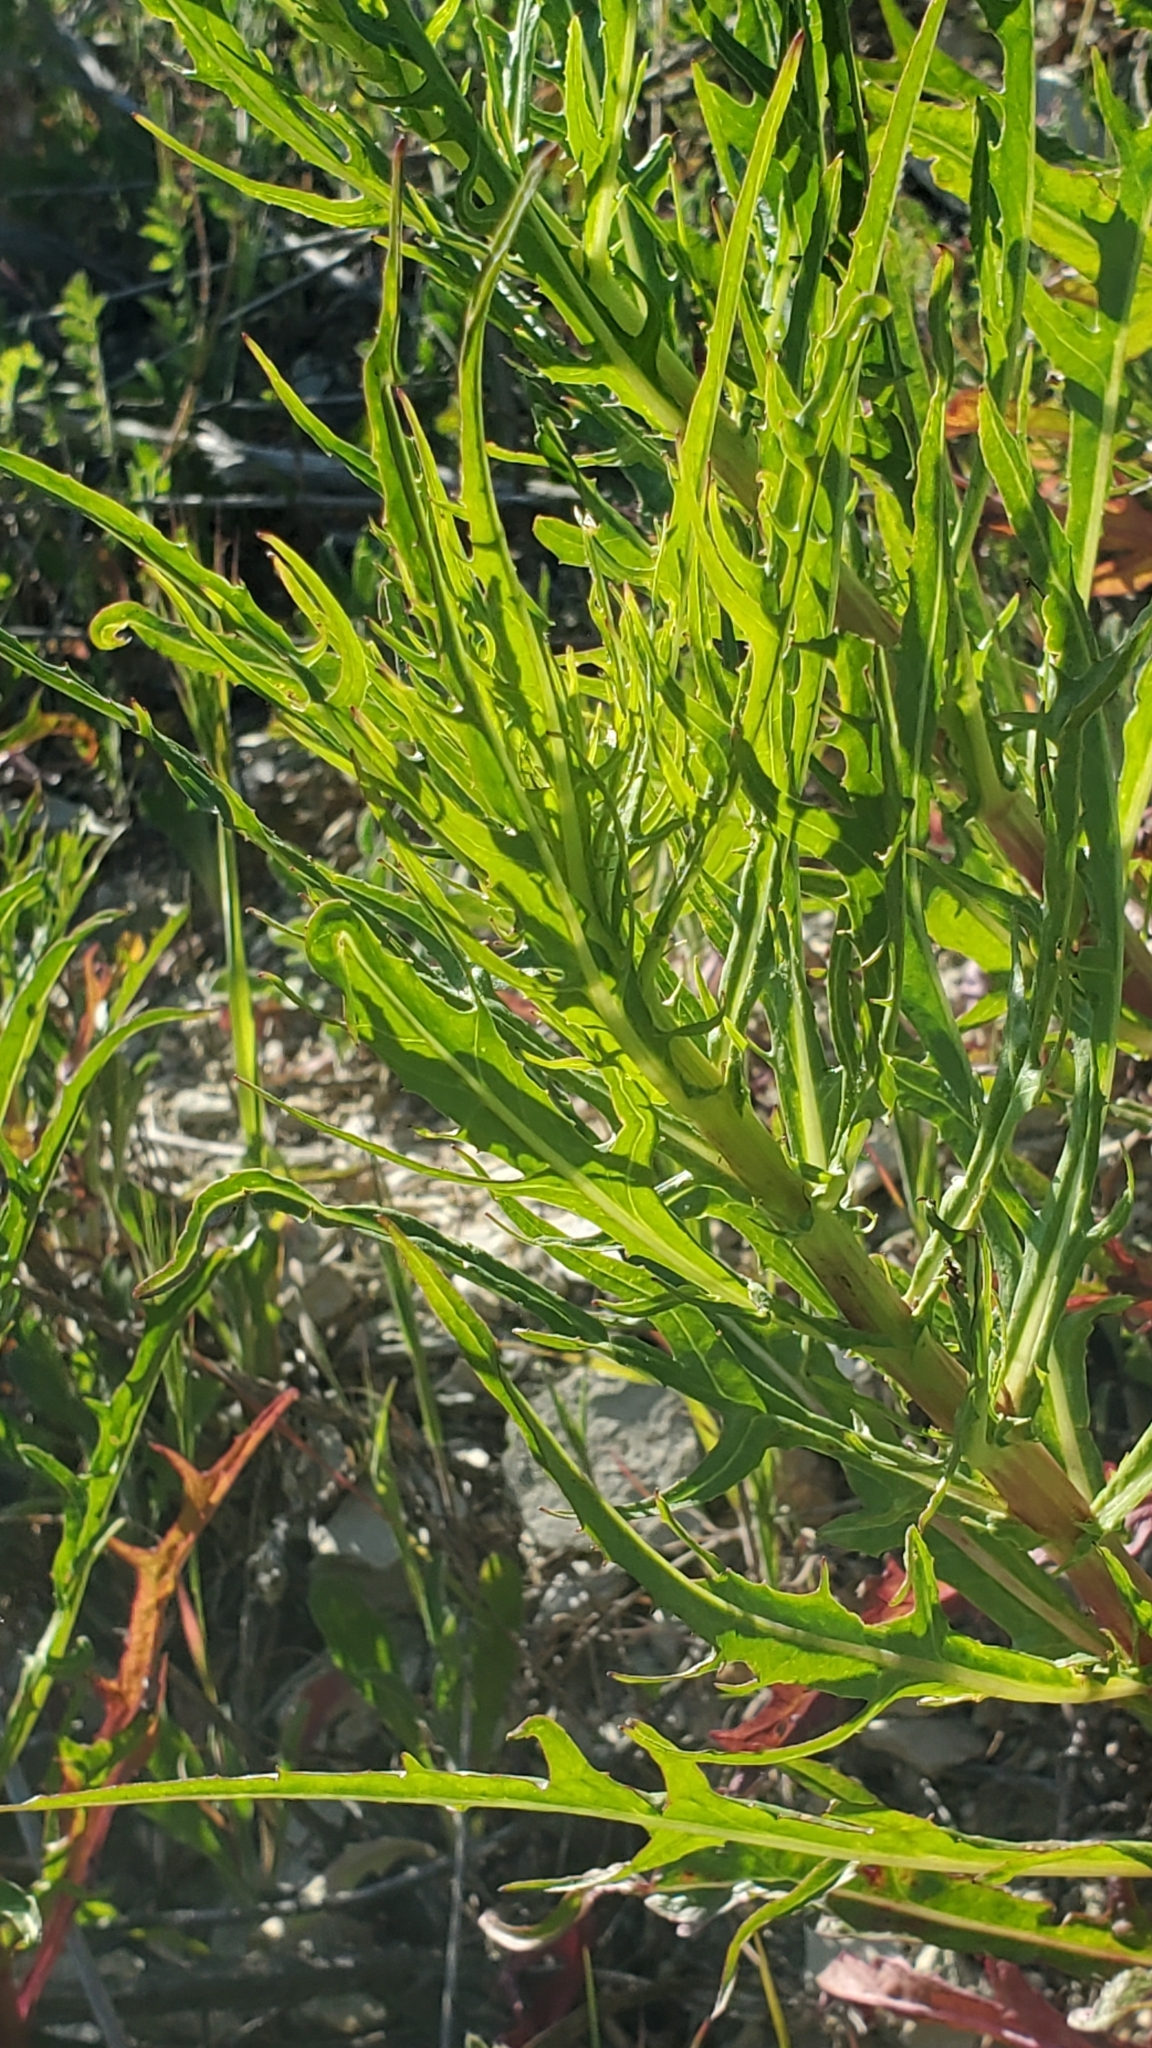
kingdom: Plantae
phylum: Tracheophyta
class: Magnoliopsida
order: Asterales
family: Asteraceae
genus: Malacothrix
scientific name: Malacothrix saxatilis
